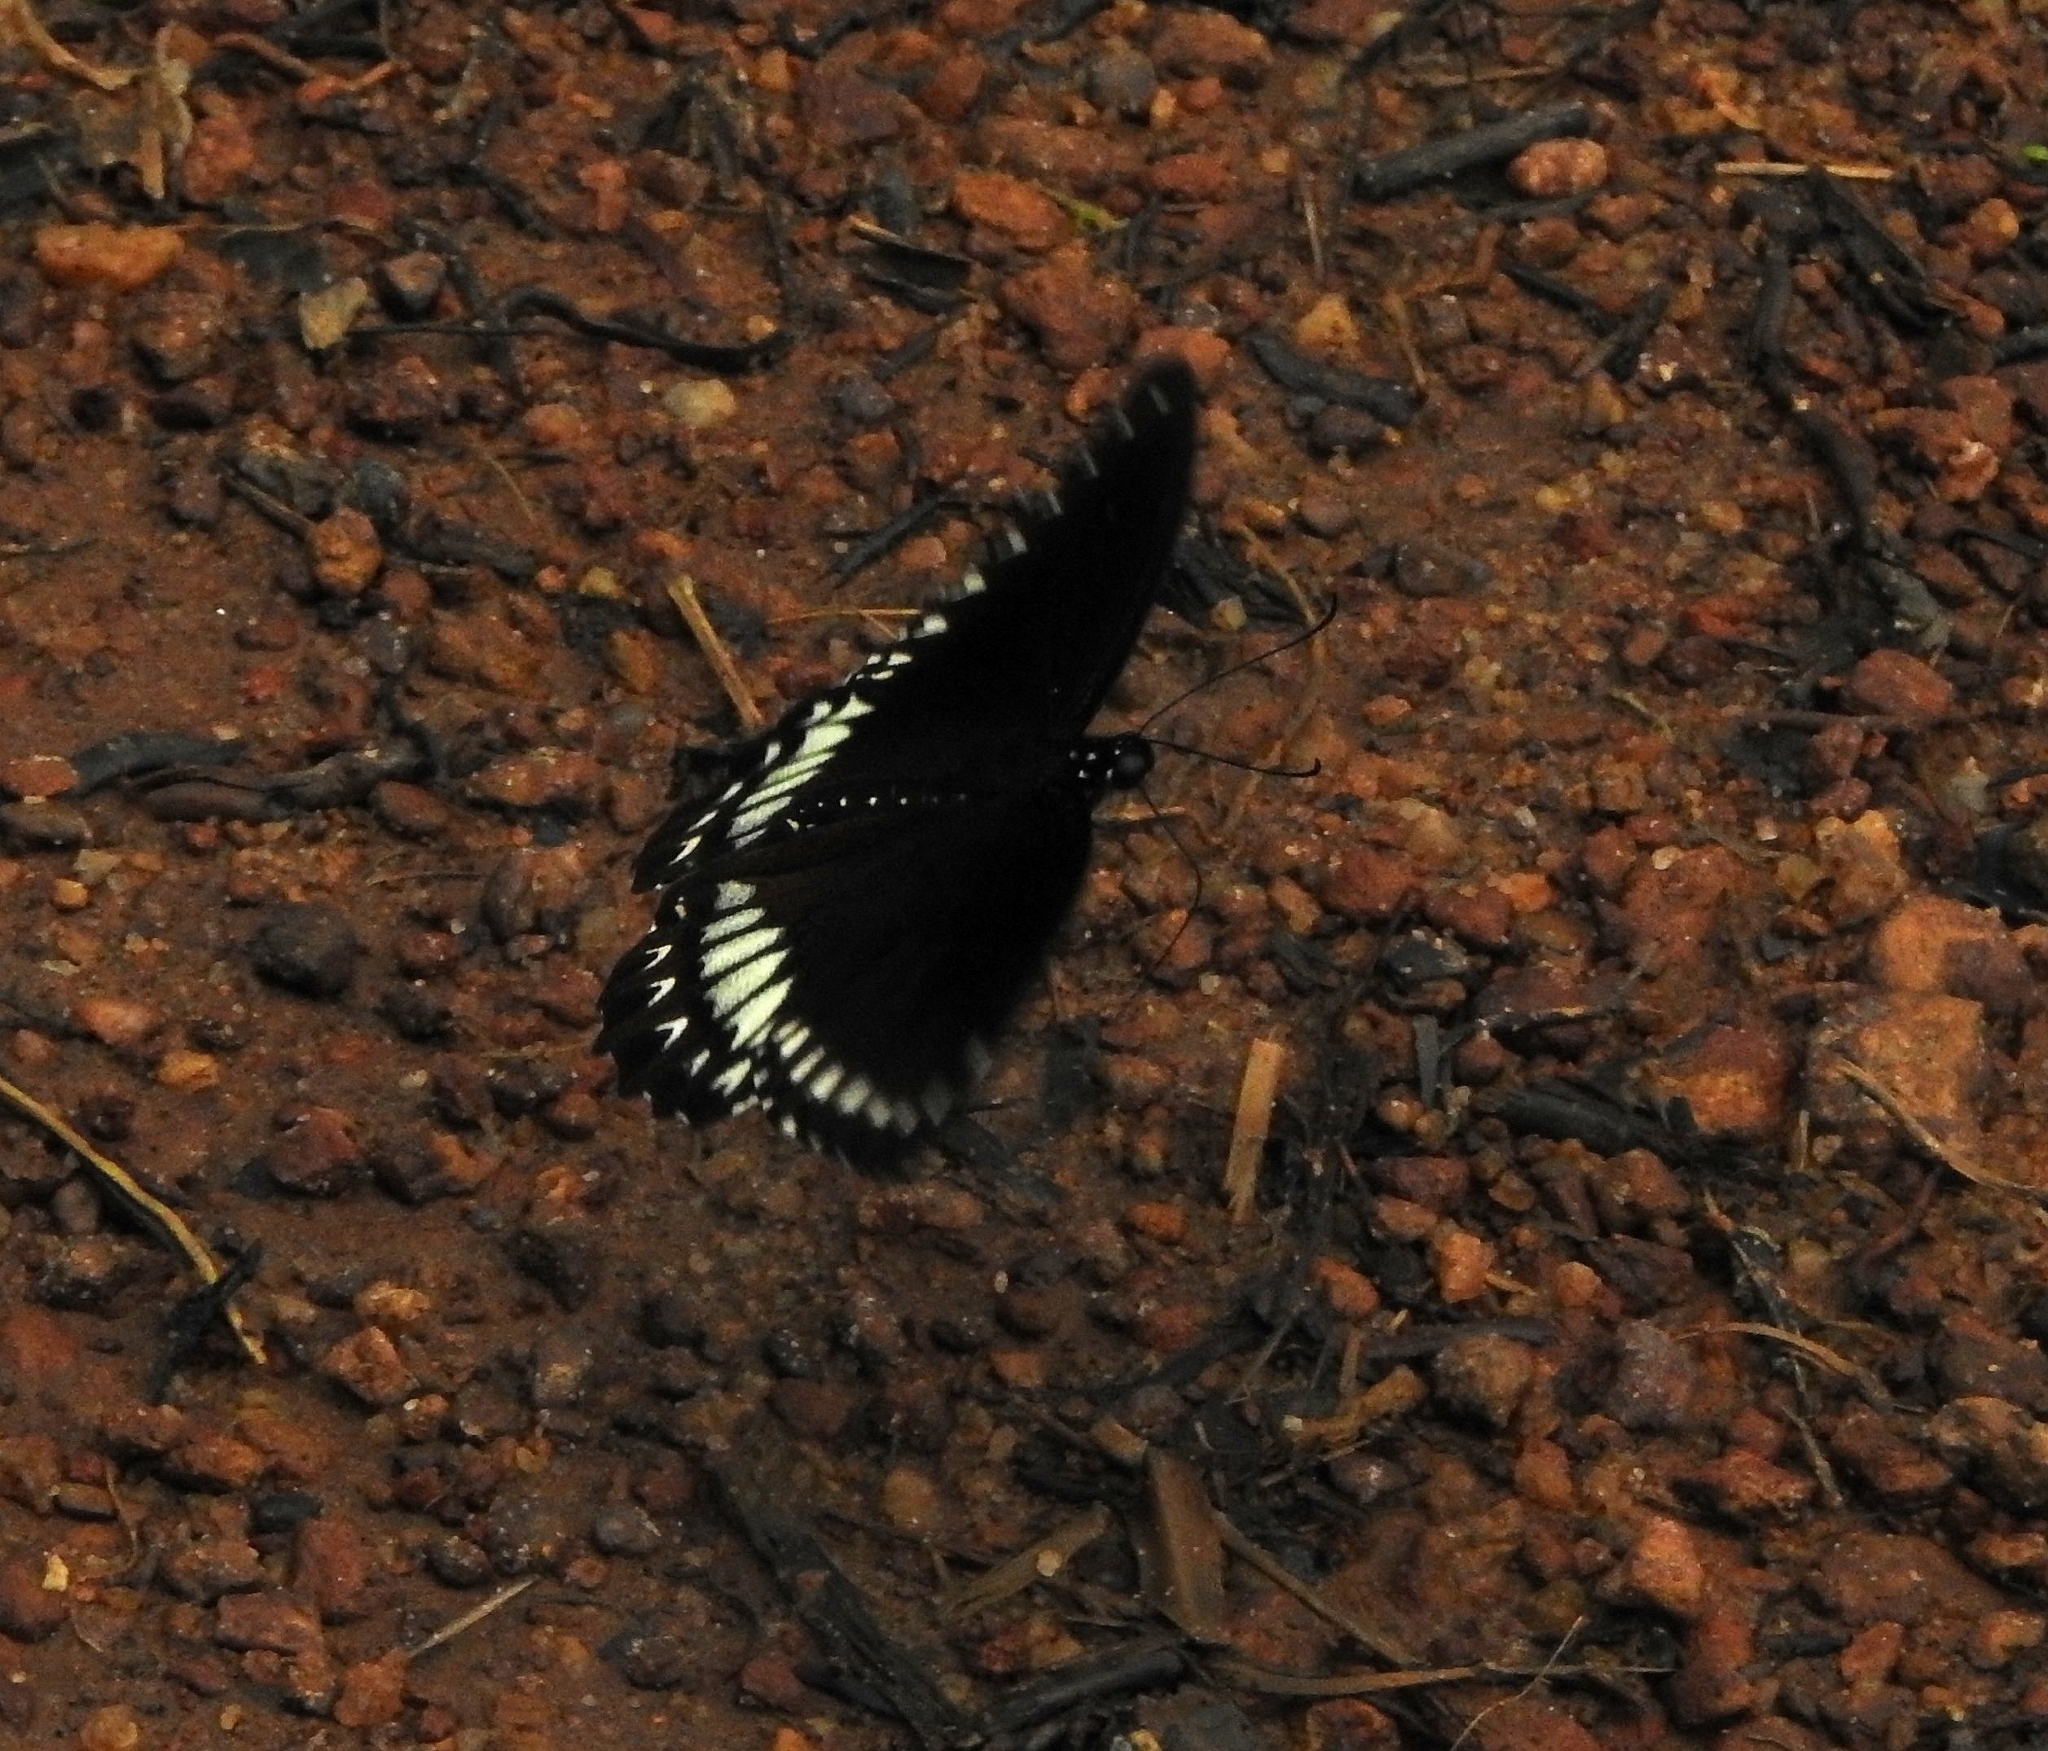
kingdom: Animalia
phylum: Arthropoda
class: Insecta
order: Lepidoptera
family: Papilionidae
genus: Papilio
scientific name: Papilio dravidarum
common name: Malabar raven
